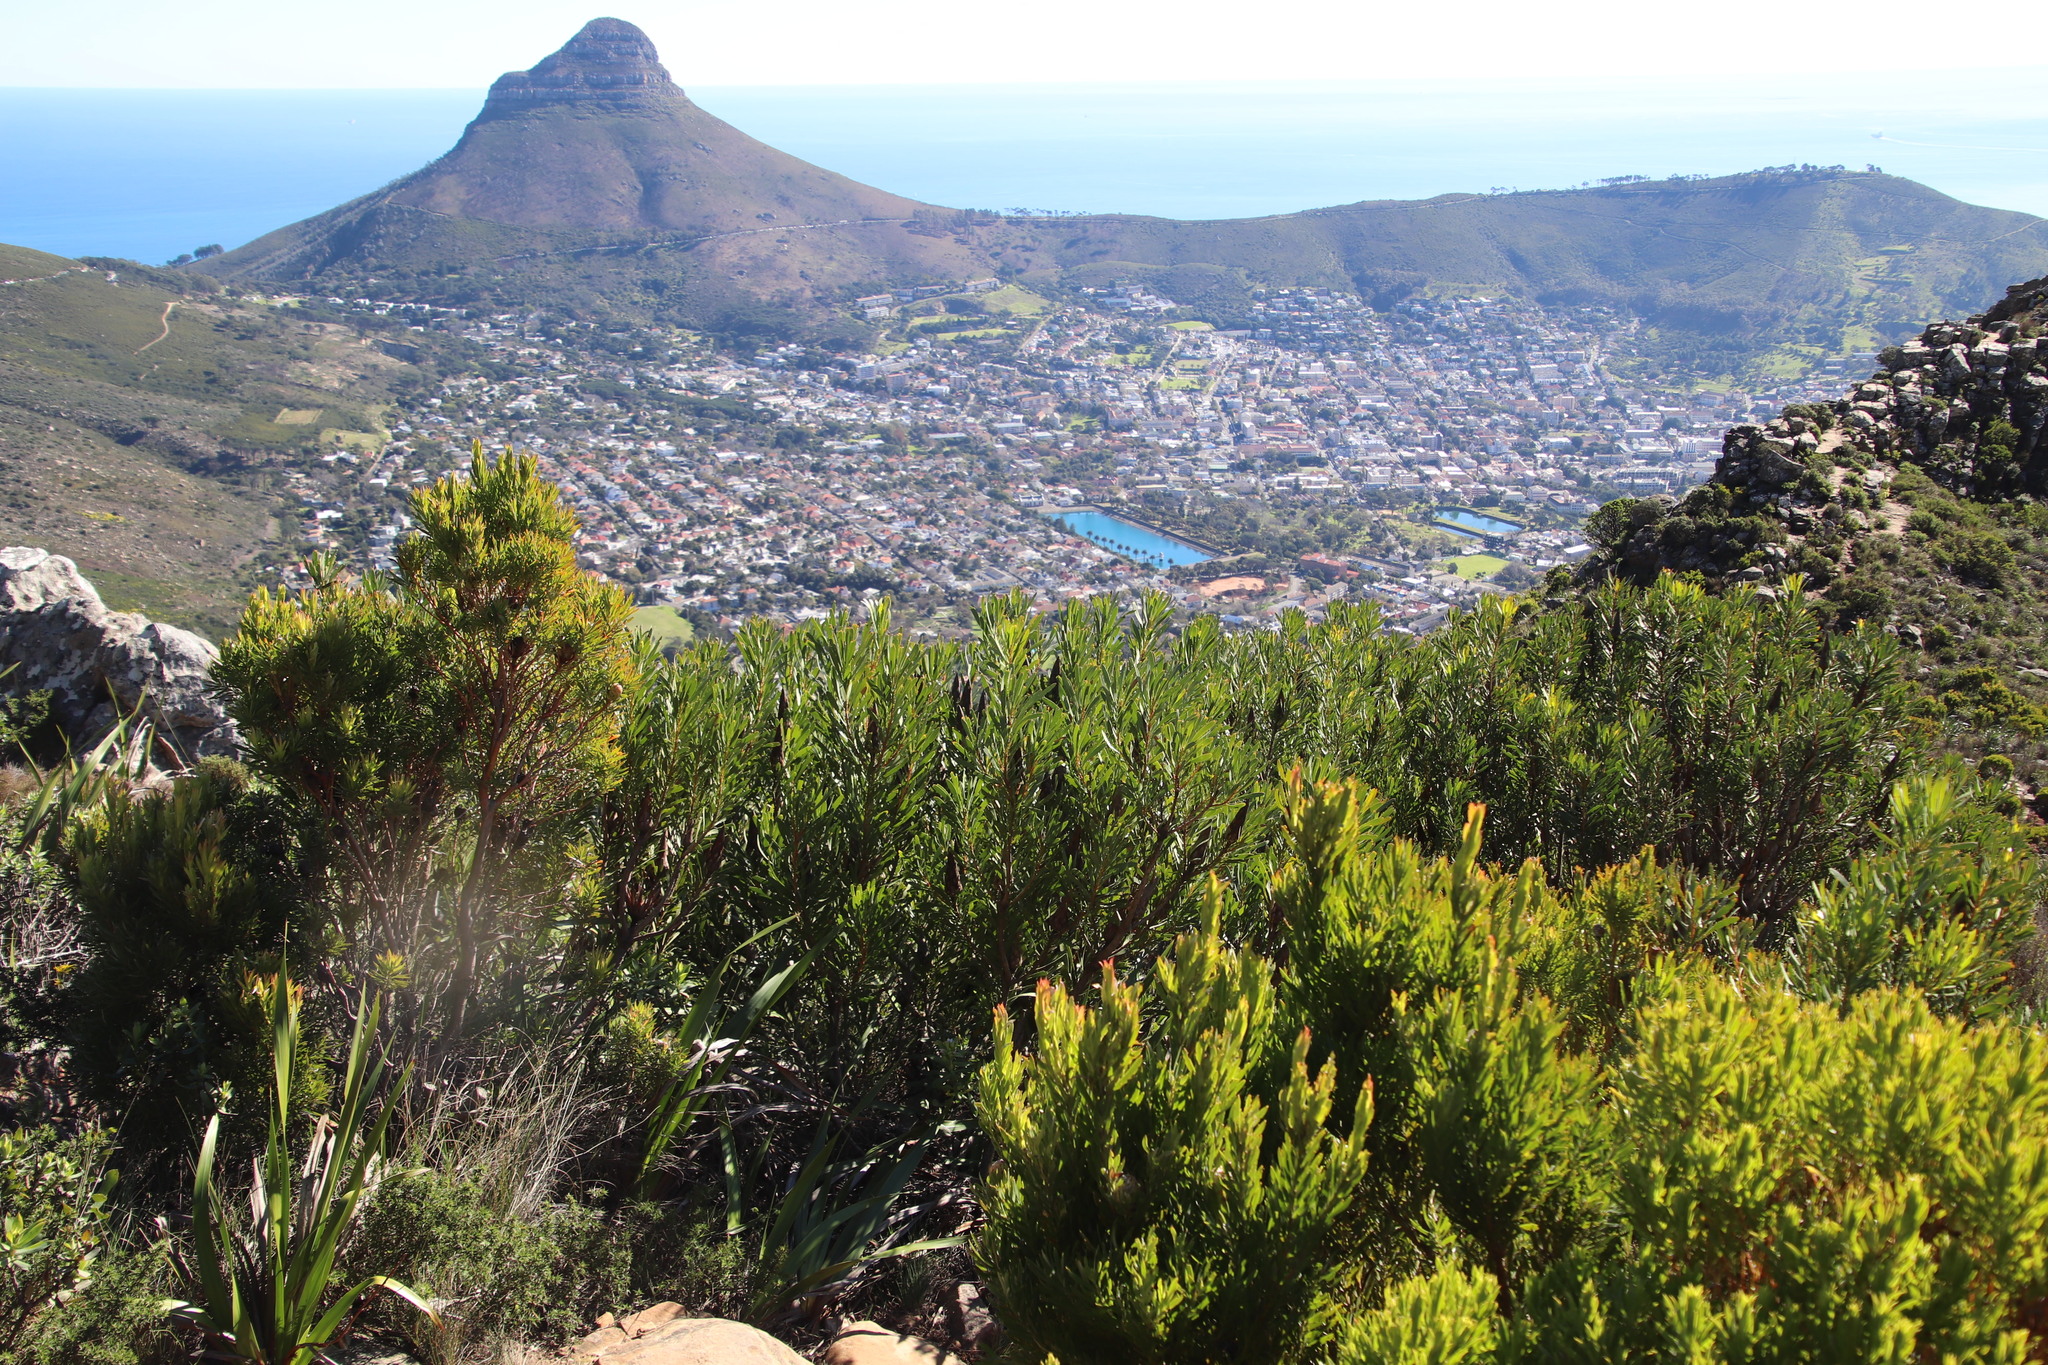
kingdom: Plantae
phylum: Tracheophyta
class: Magnoliopsida
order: Proteales
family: Proteaceae
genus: Protea
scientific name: Protea repens
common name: Sugarbush
